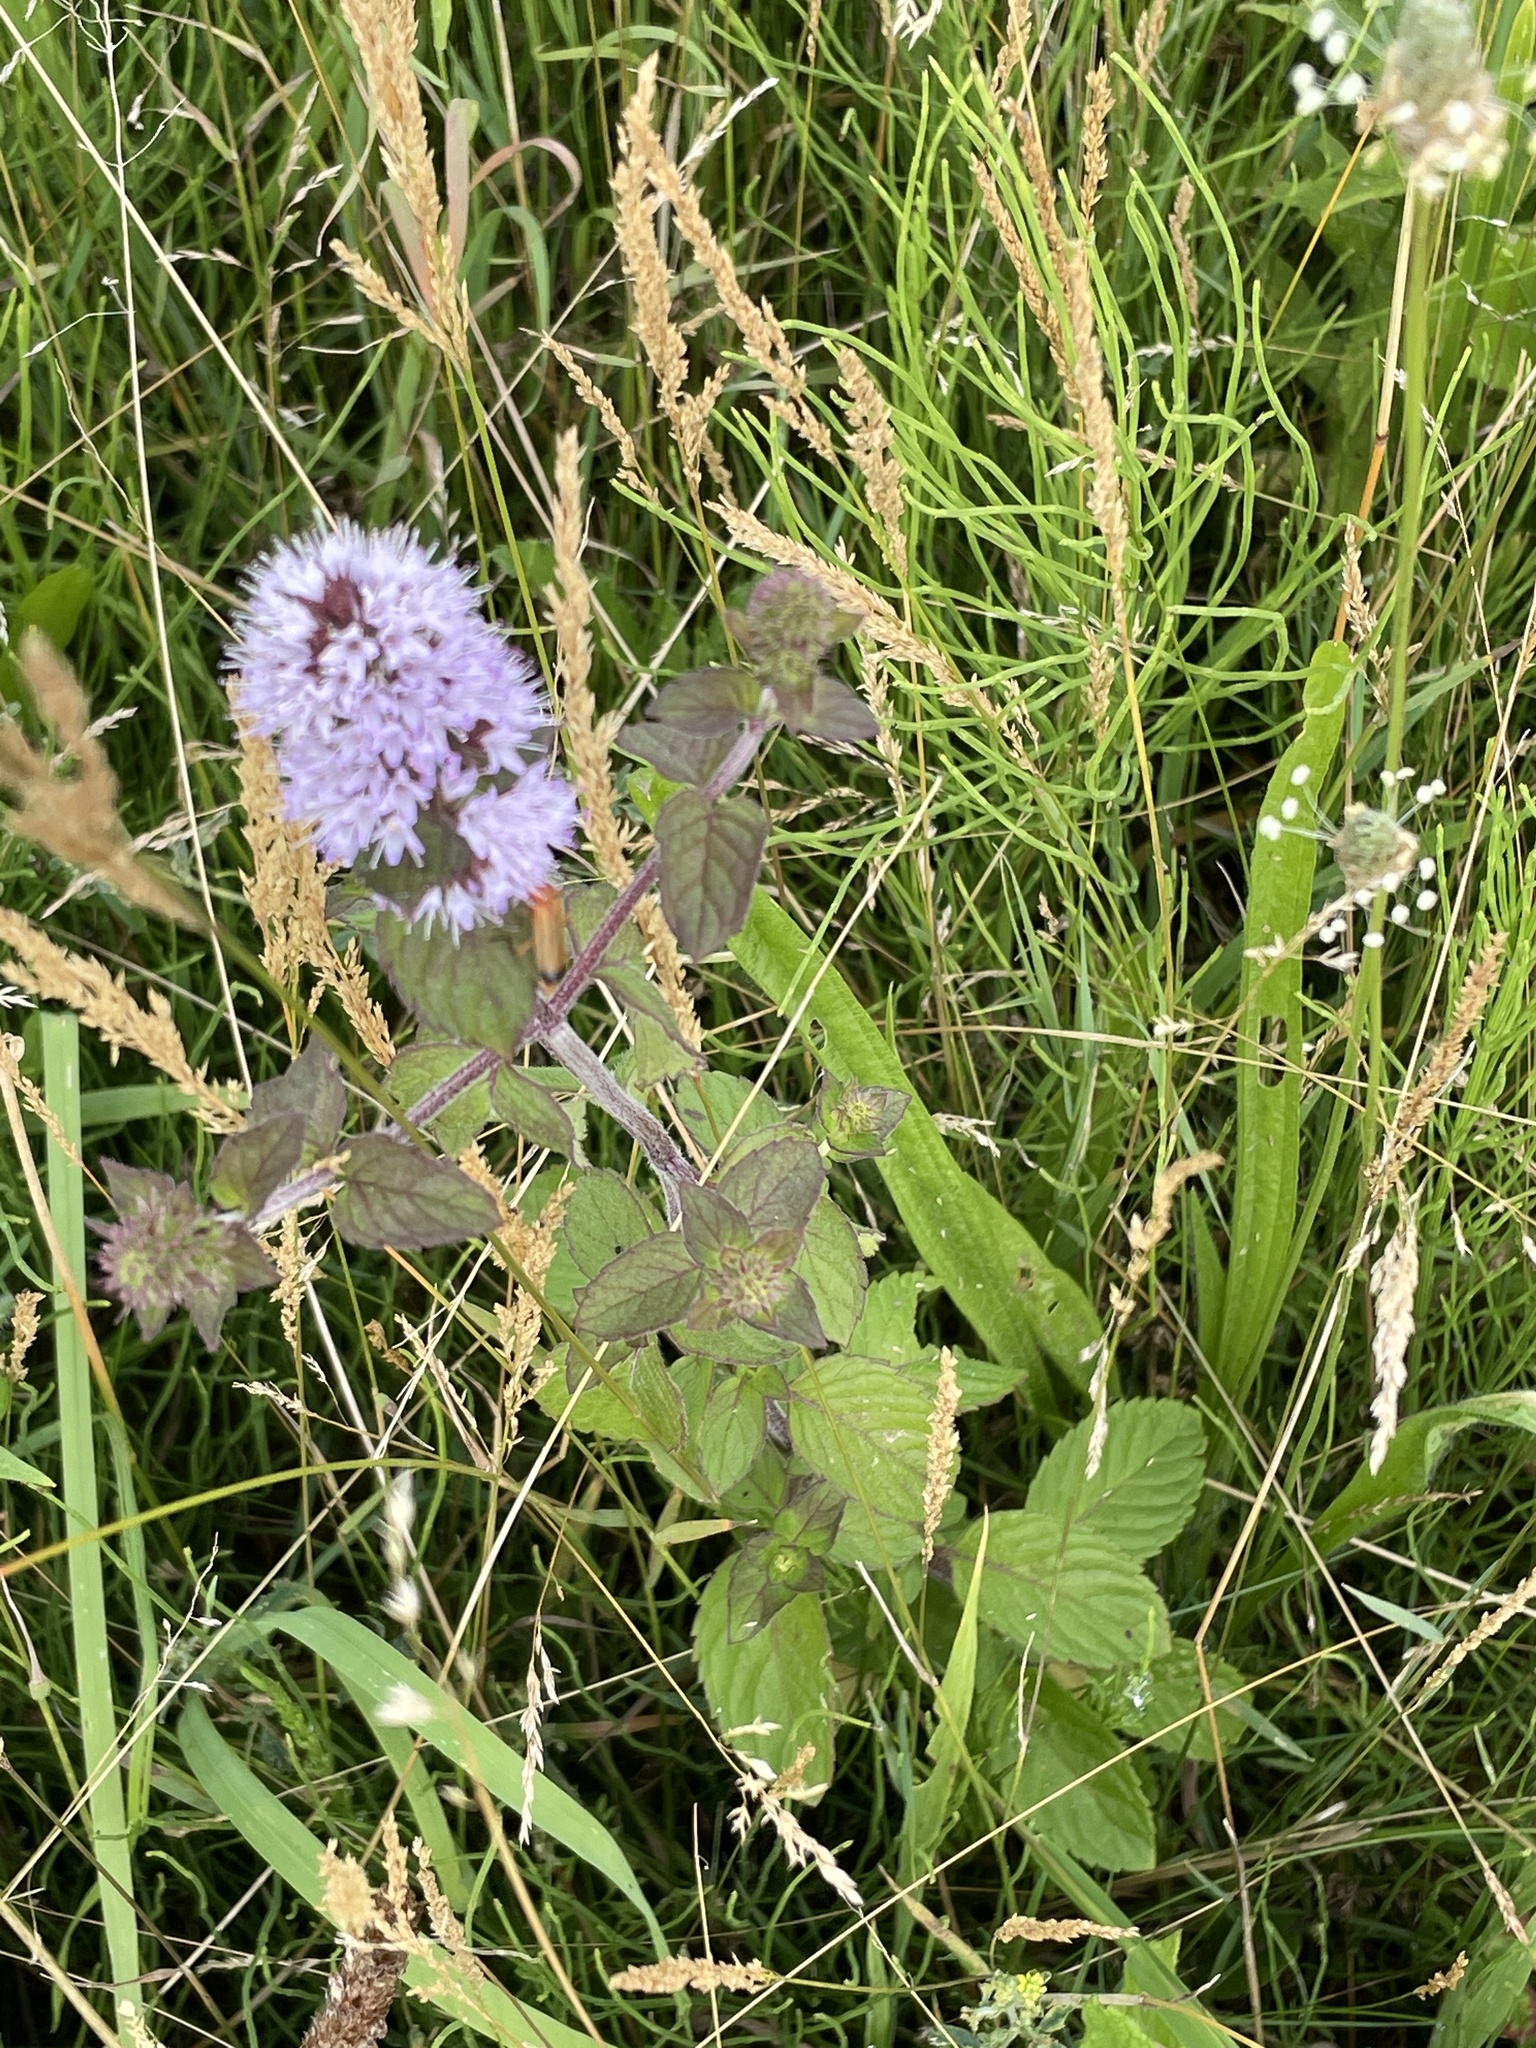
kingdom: Plantae
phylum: Tracheophyta
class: Magnoliopsida
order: Lamiales
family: Lamiaceae
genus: Mentha
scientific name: Mentha aquatica
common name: Water mint
